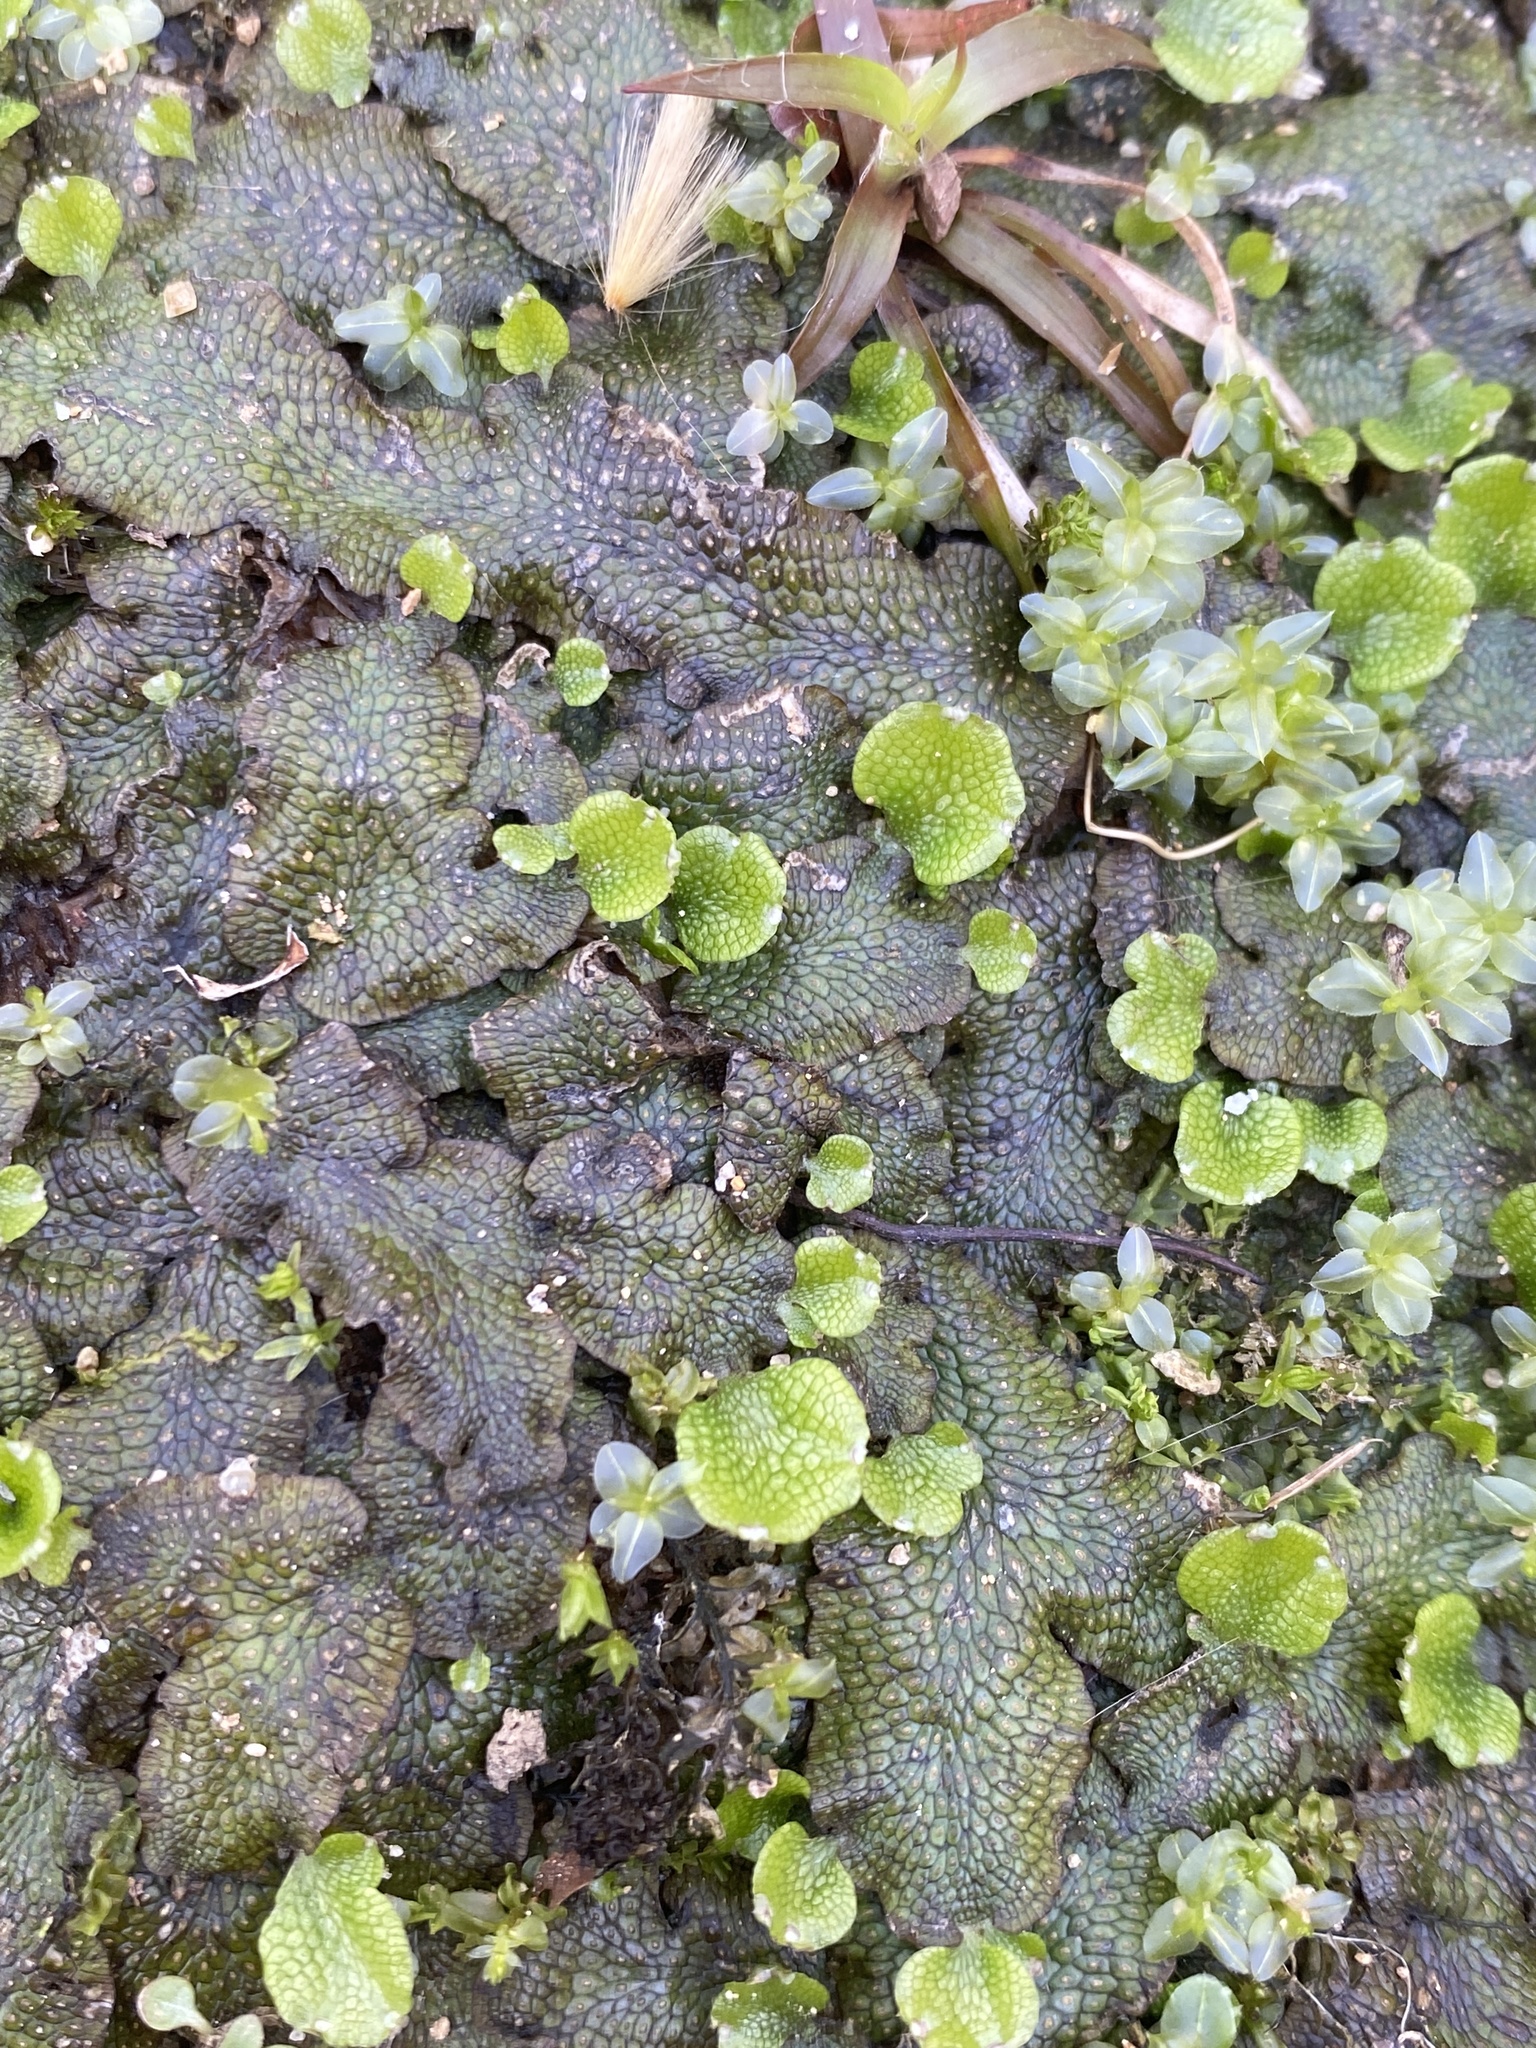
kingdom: Plantae
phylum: Marchantiophyta
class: Marchantiopsida
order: Marchantiales
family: Conocephalaceae
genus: Conocephalum
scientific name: Conocephalum salebrosum
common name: Cat-tongue liverwort
